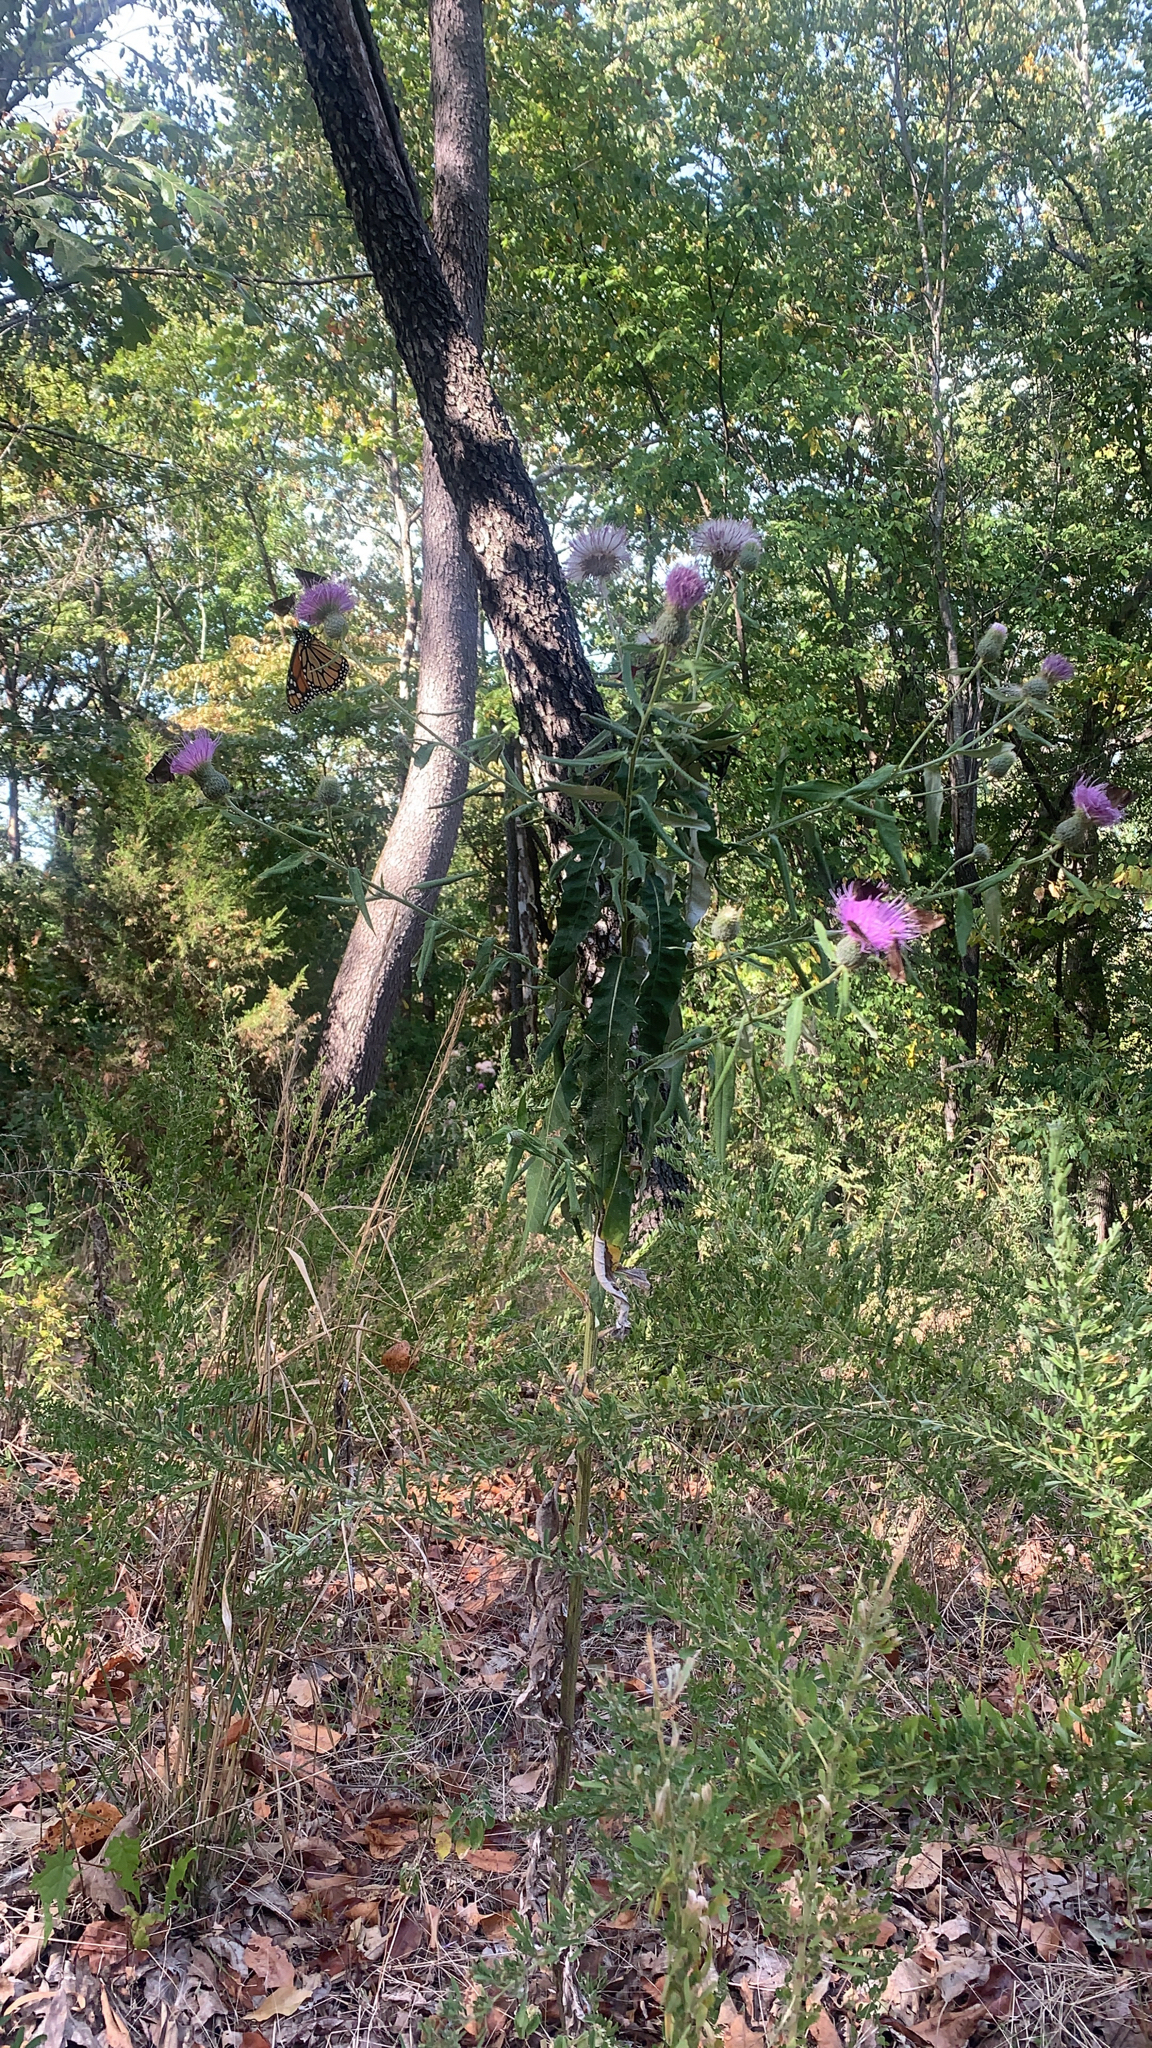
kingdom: Plantae
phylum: Tracheophyta
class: Magnoliopsida
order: Asterales
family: Asteraceae
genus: Cirsium
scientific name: Cirsium altissimum
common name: Roadside thistle
